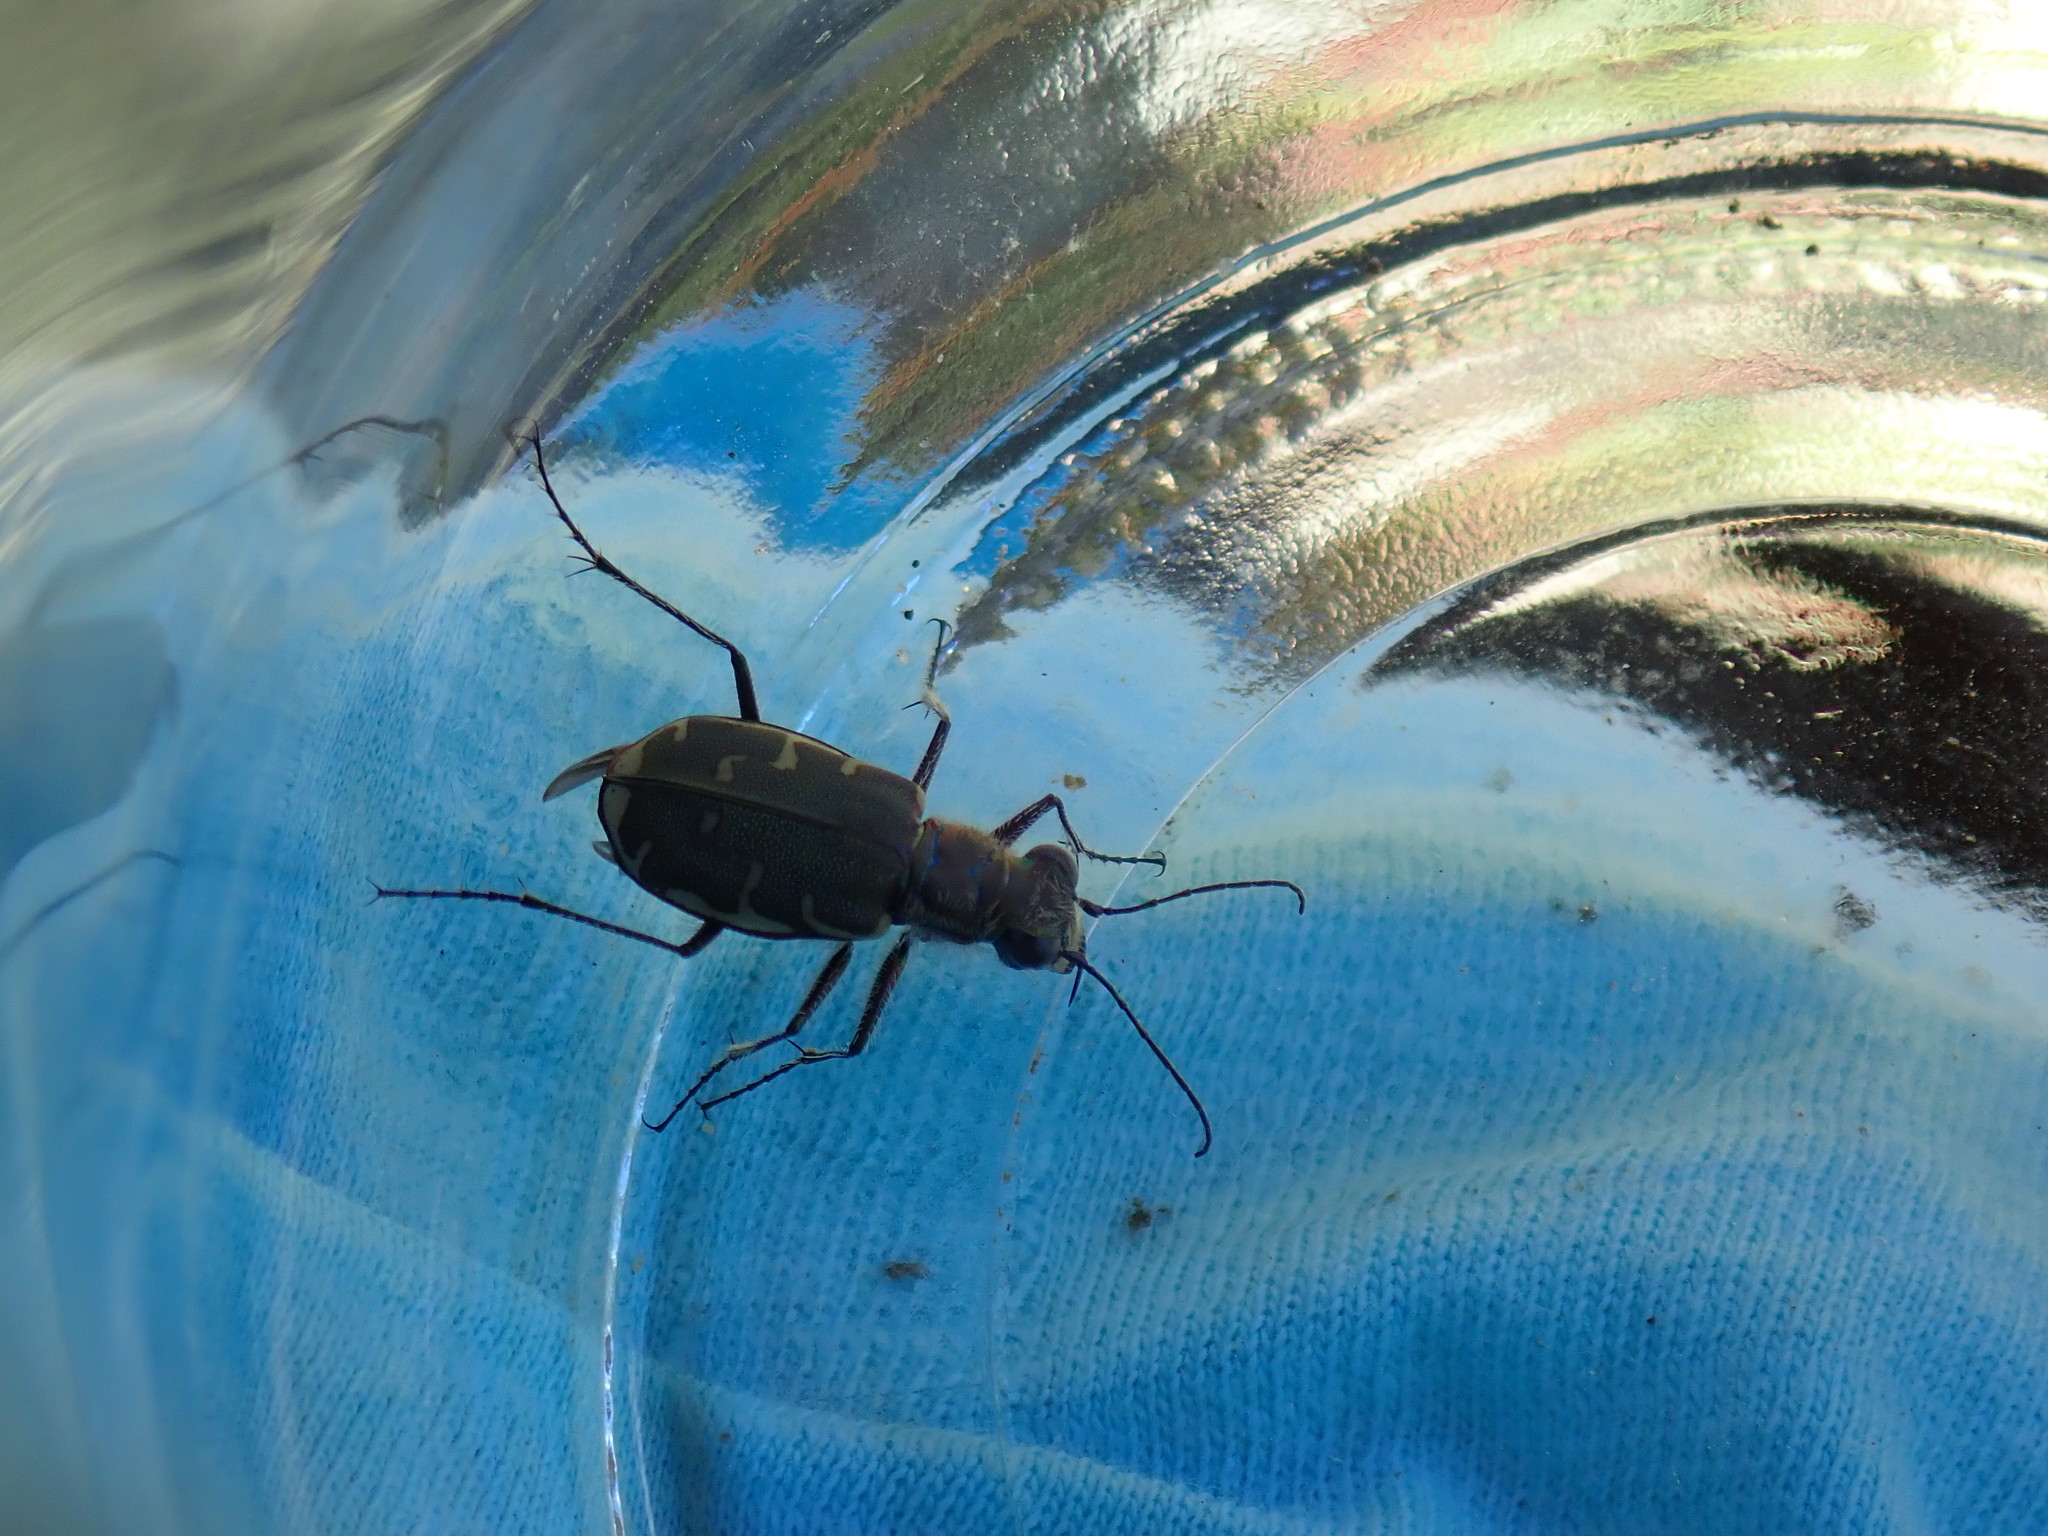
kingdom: Animalia
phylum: Arthropoda
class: Insecta
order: Coleoptera
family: Carabidae
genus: Cicindela
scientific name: Cicindela repanda
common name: Bronzed tiger beetle
